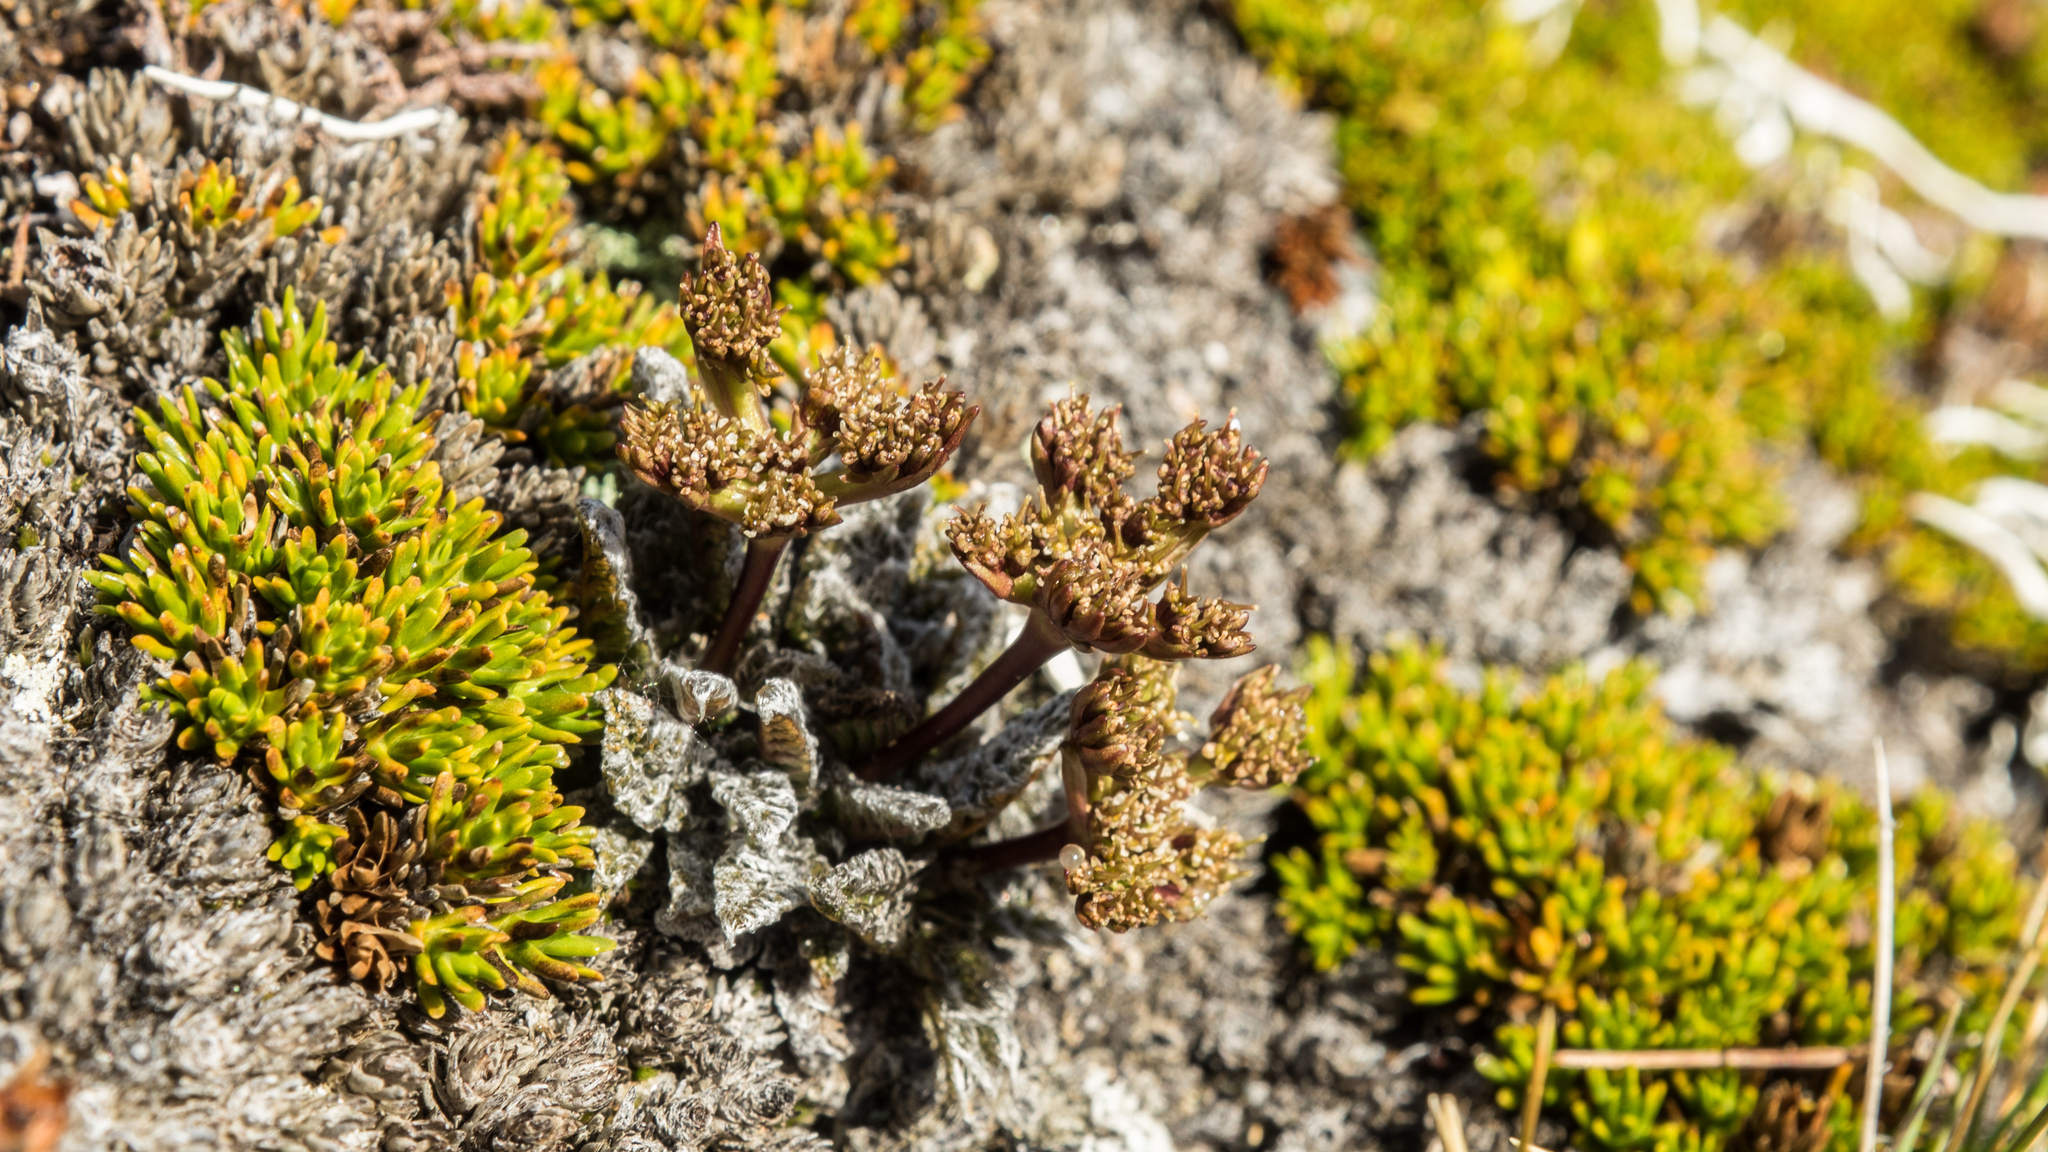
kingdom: Plantae
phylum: Tracheophyta
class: Magnoliopsida
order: Apiales
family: Apiaceae
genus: Anisotome
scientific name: Anisotome lanuginosa
